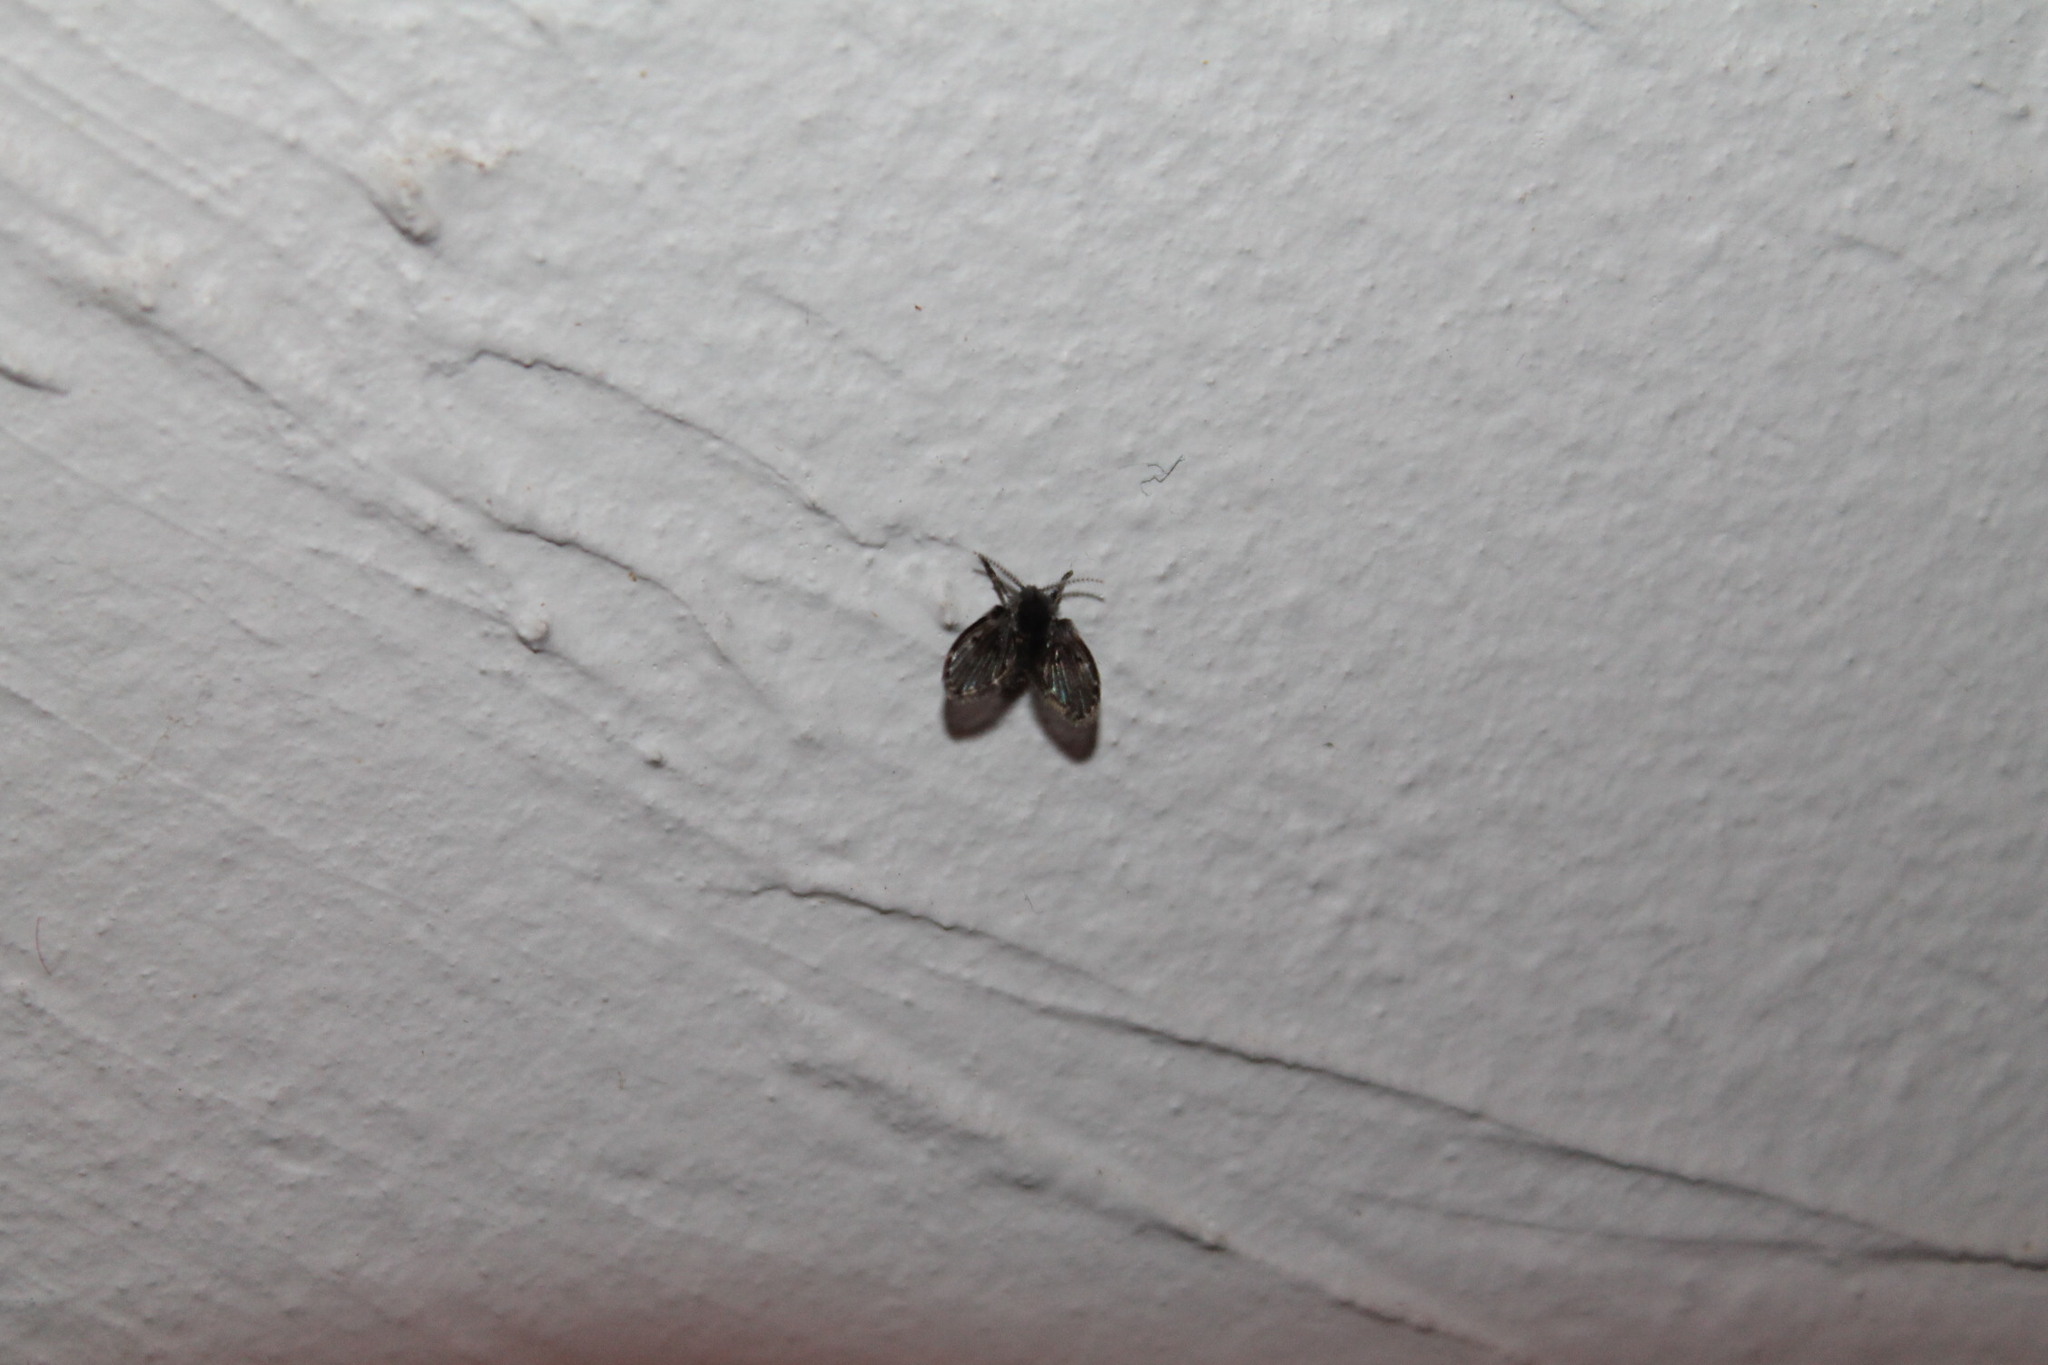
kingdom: Animalia
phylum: Arthropoda
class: Insecta
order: Diptera
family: Psychodidae
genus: Clogmia
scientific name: Clogmia albipunctatus
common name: White-spotted moth fly
